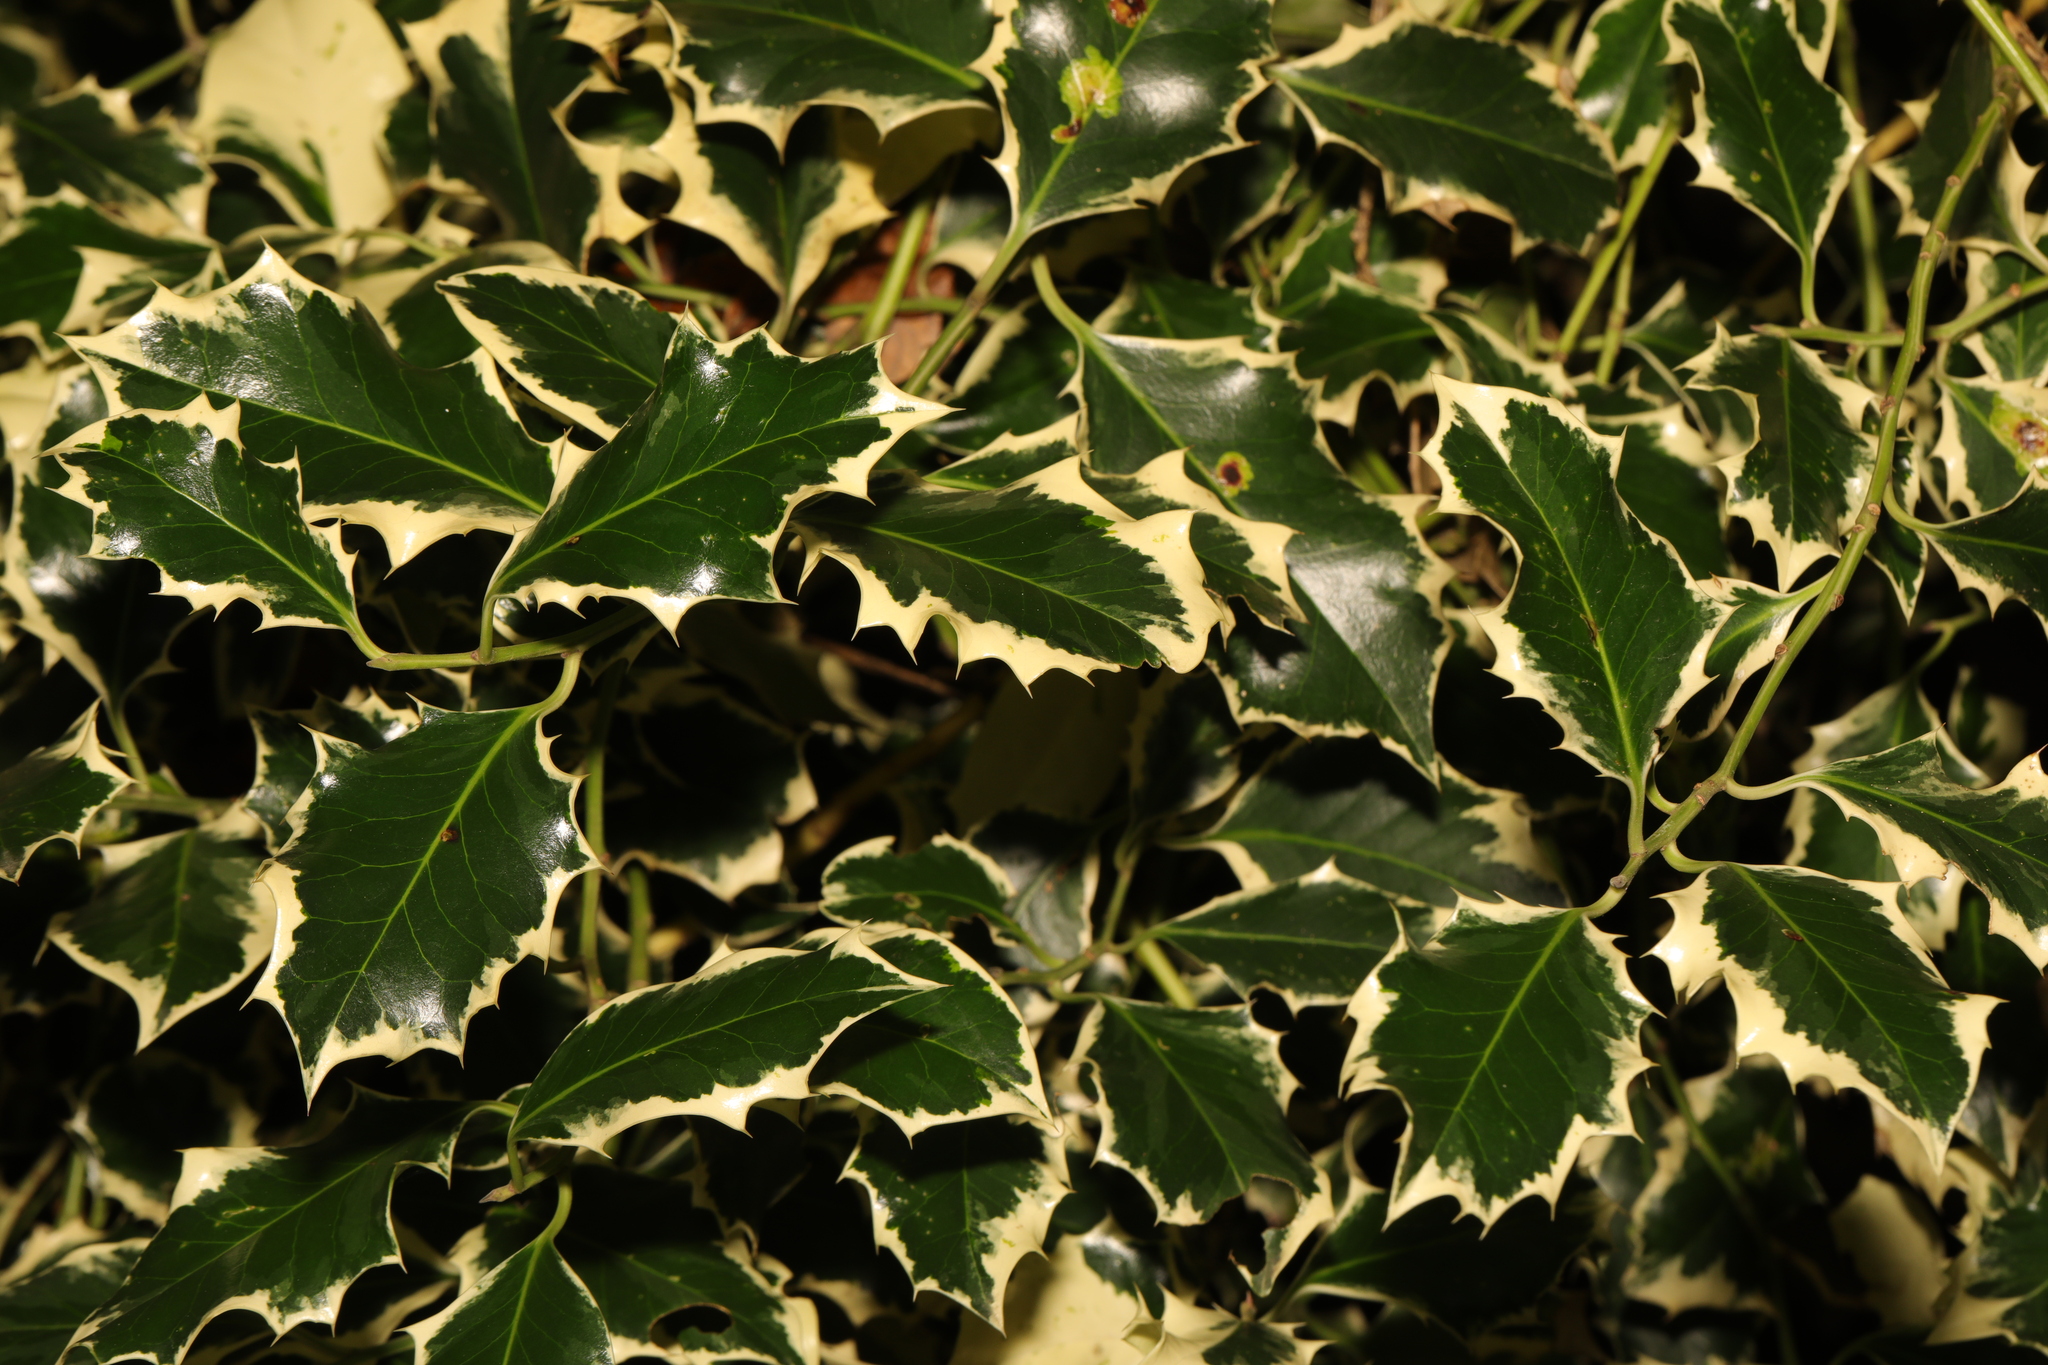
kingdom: Plantae
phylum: Tracheophyta
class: Magnoliopsida
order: Aquifoliales
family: Aquifoliaceae
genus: Ilex
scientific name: Ilex aquifolium
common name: English holly
